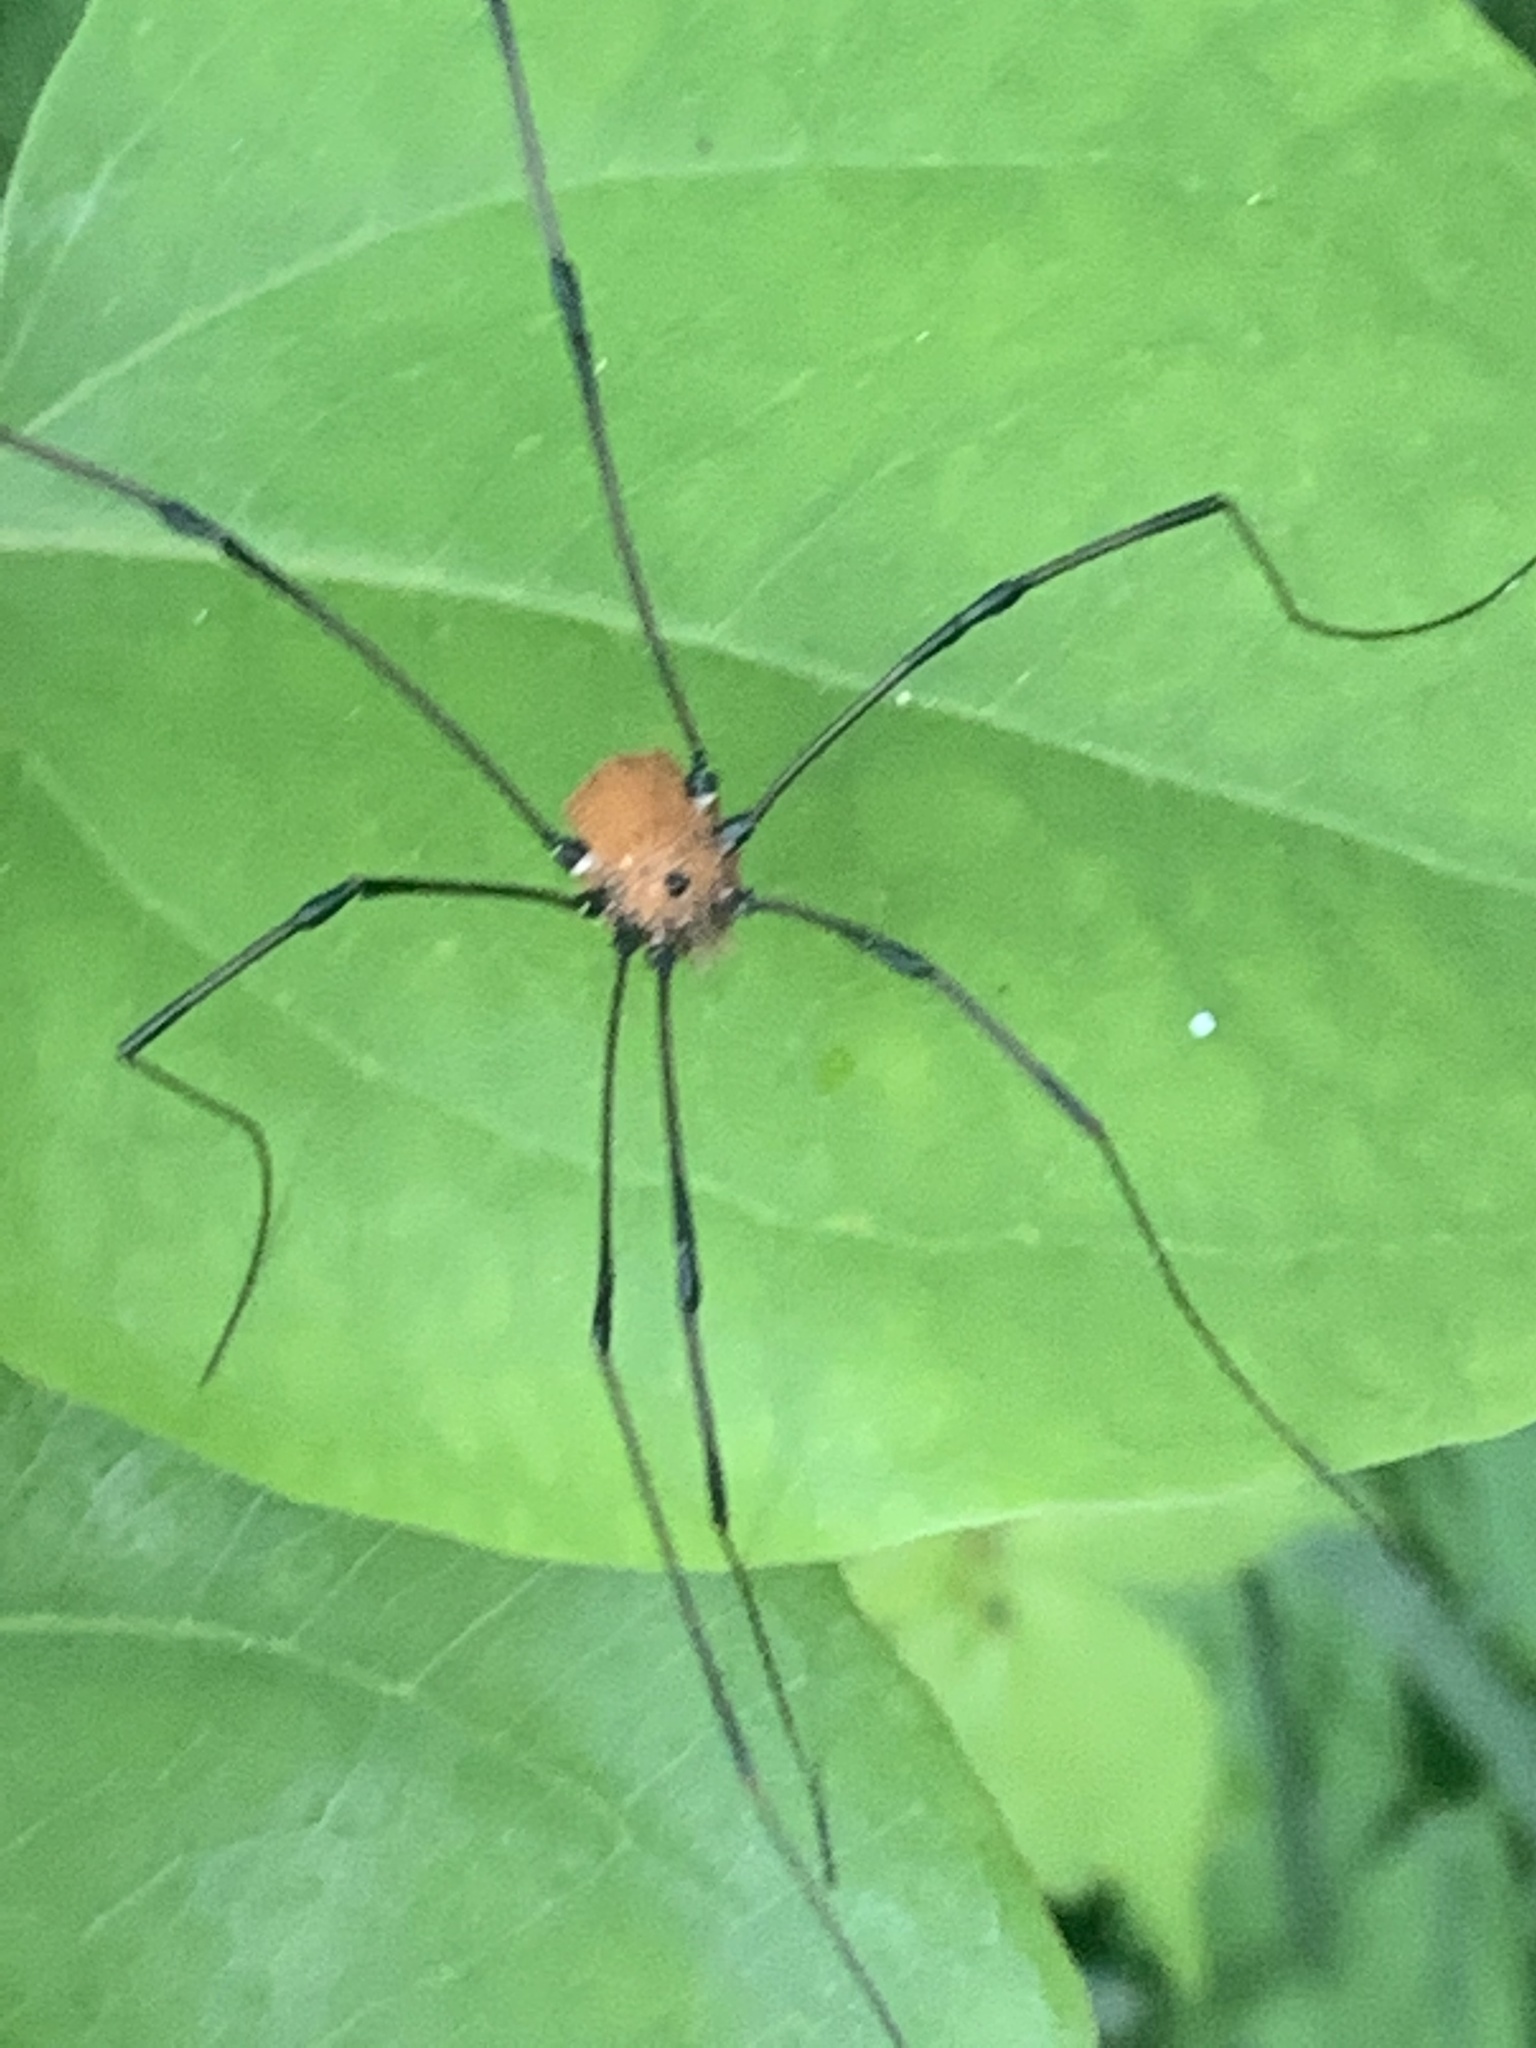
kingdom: Animalia
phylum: Arthropoda
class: Arachnida
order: Opiliones
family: Sclerosomatidae
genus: Leiobunum
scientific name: Leiobunum vittatum
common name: Eastern harvestman
